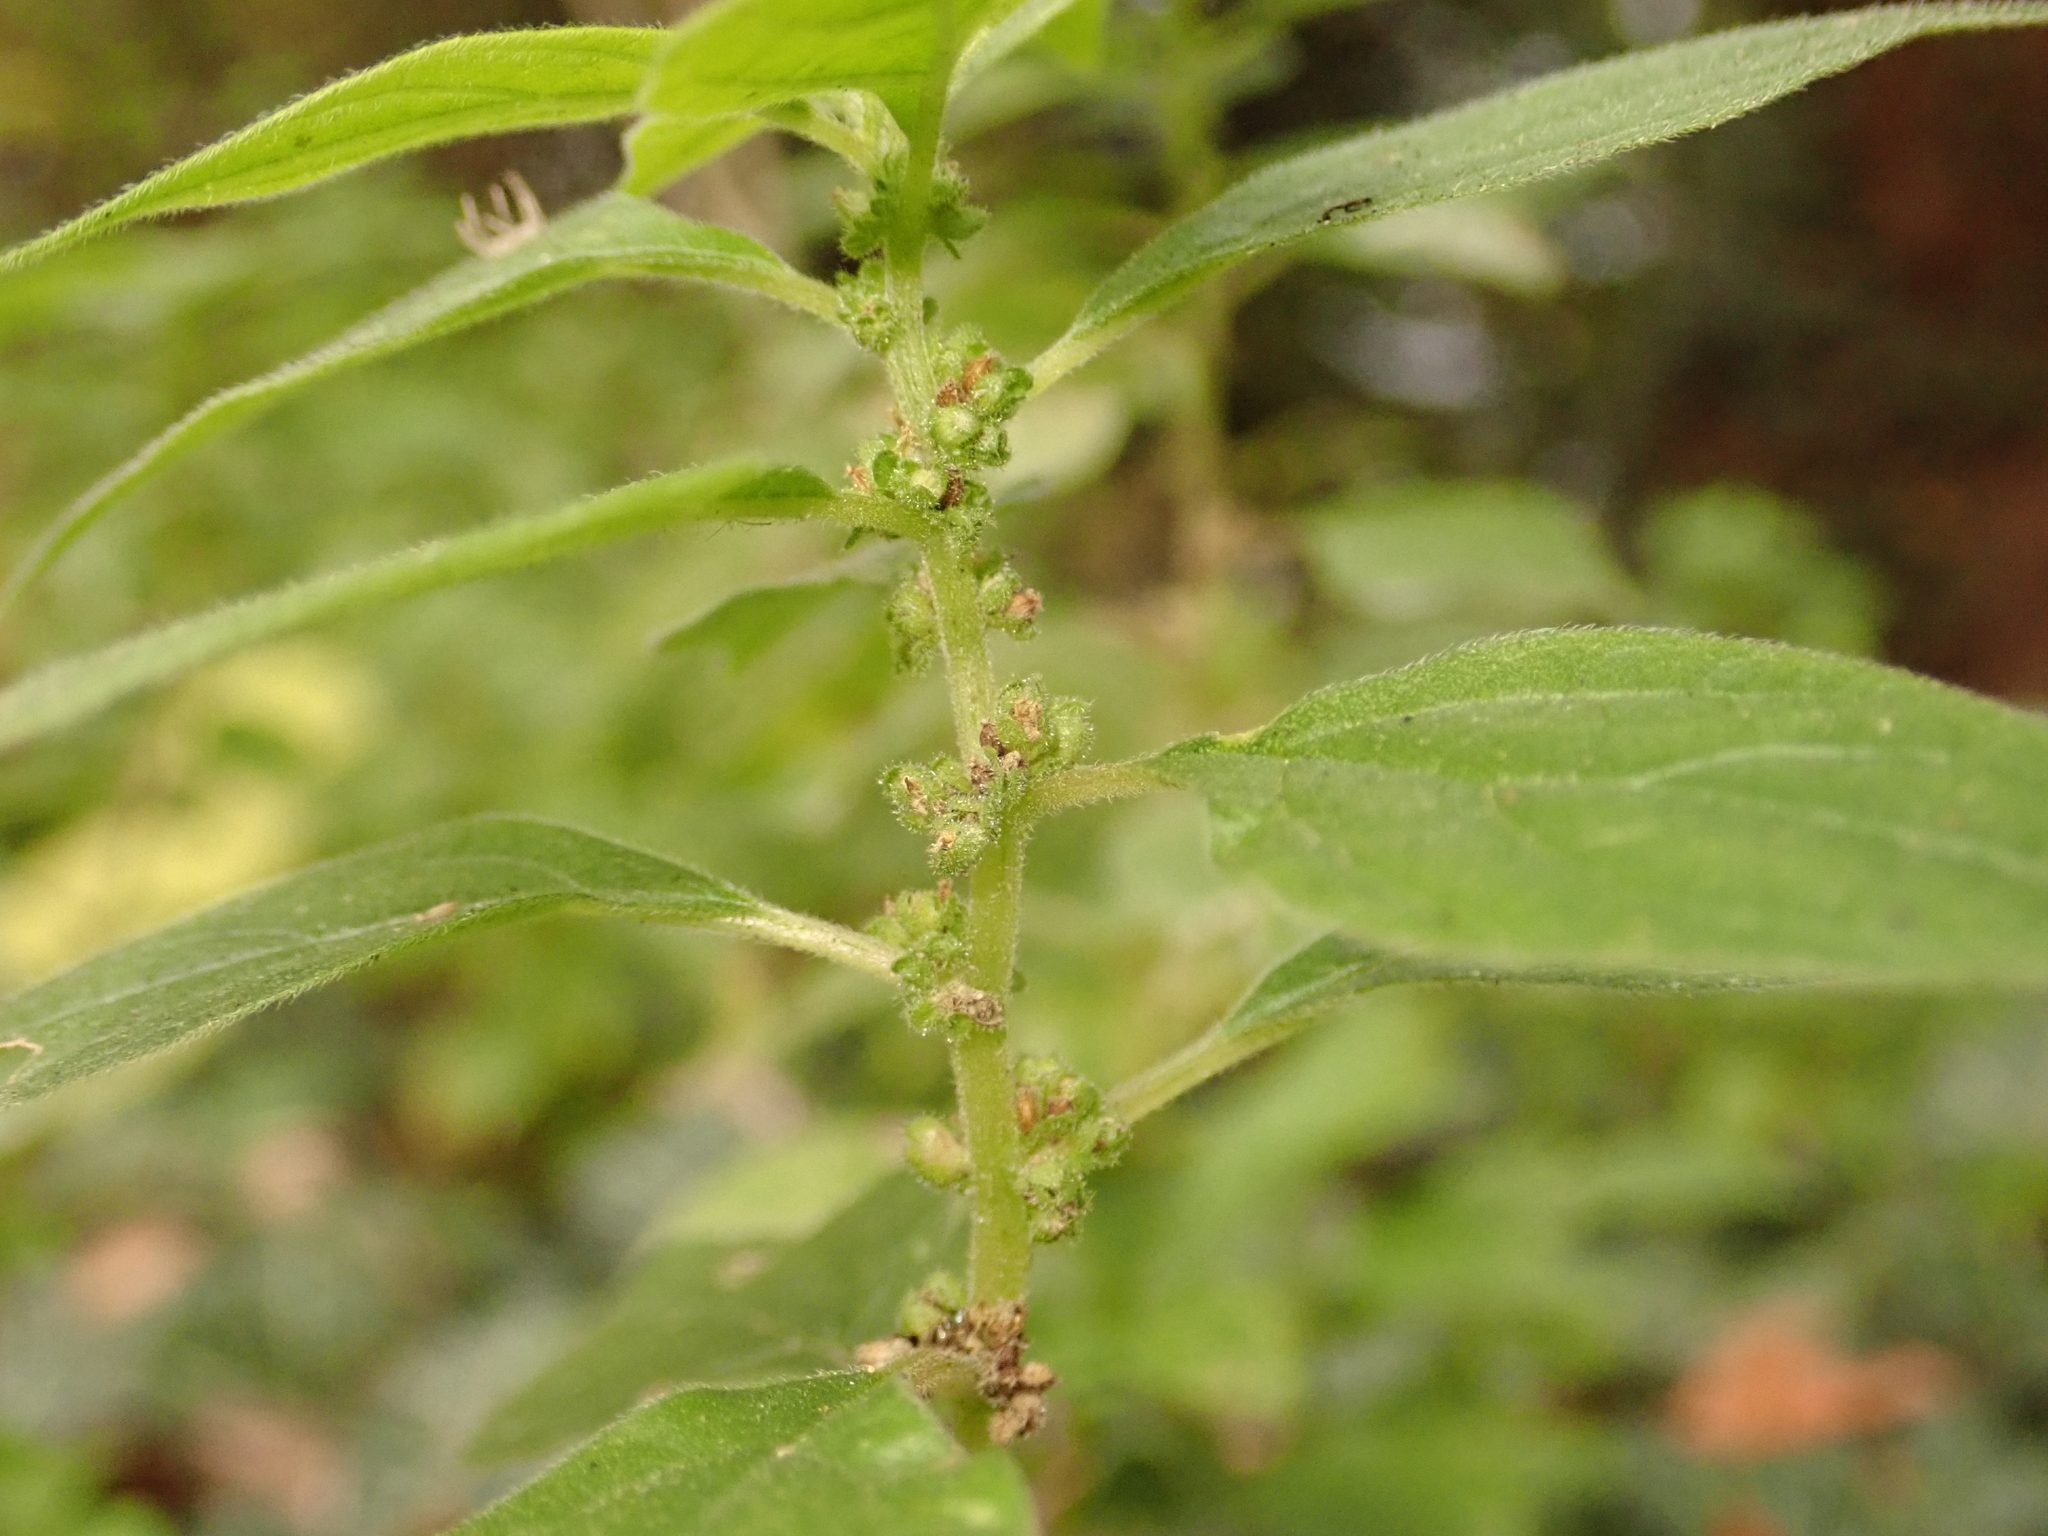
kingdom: Plantae
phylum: Tracheophyta
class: Magnoliopsida
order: Rosales
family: Urticaceae
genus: Parietaria
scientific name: Parietaria officinalis
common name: Eastern pellitory-of-the-wall
